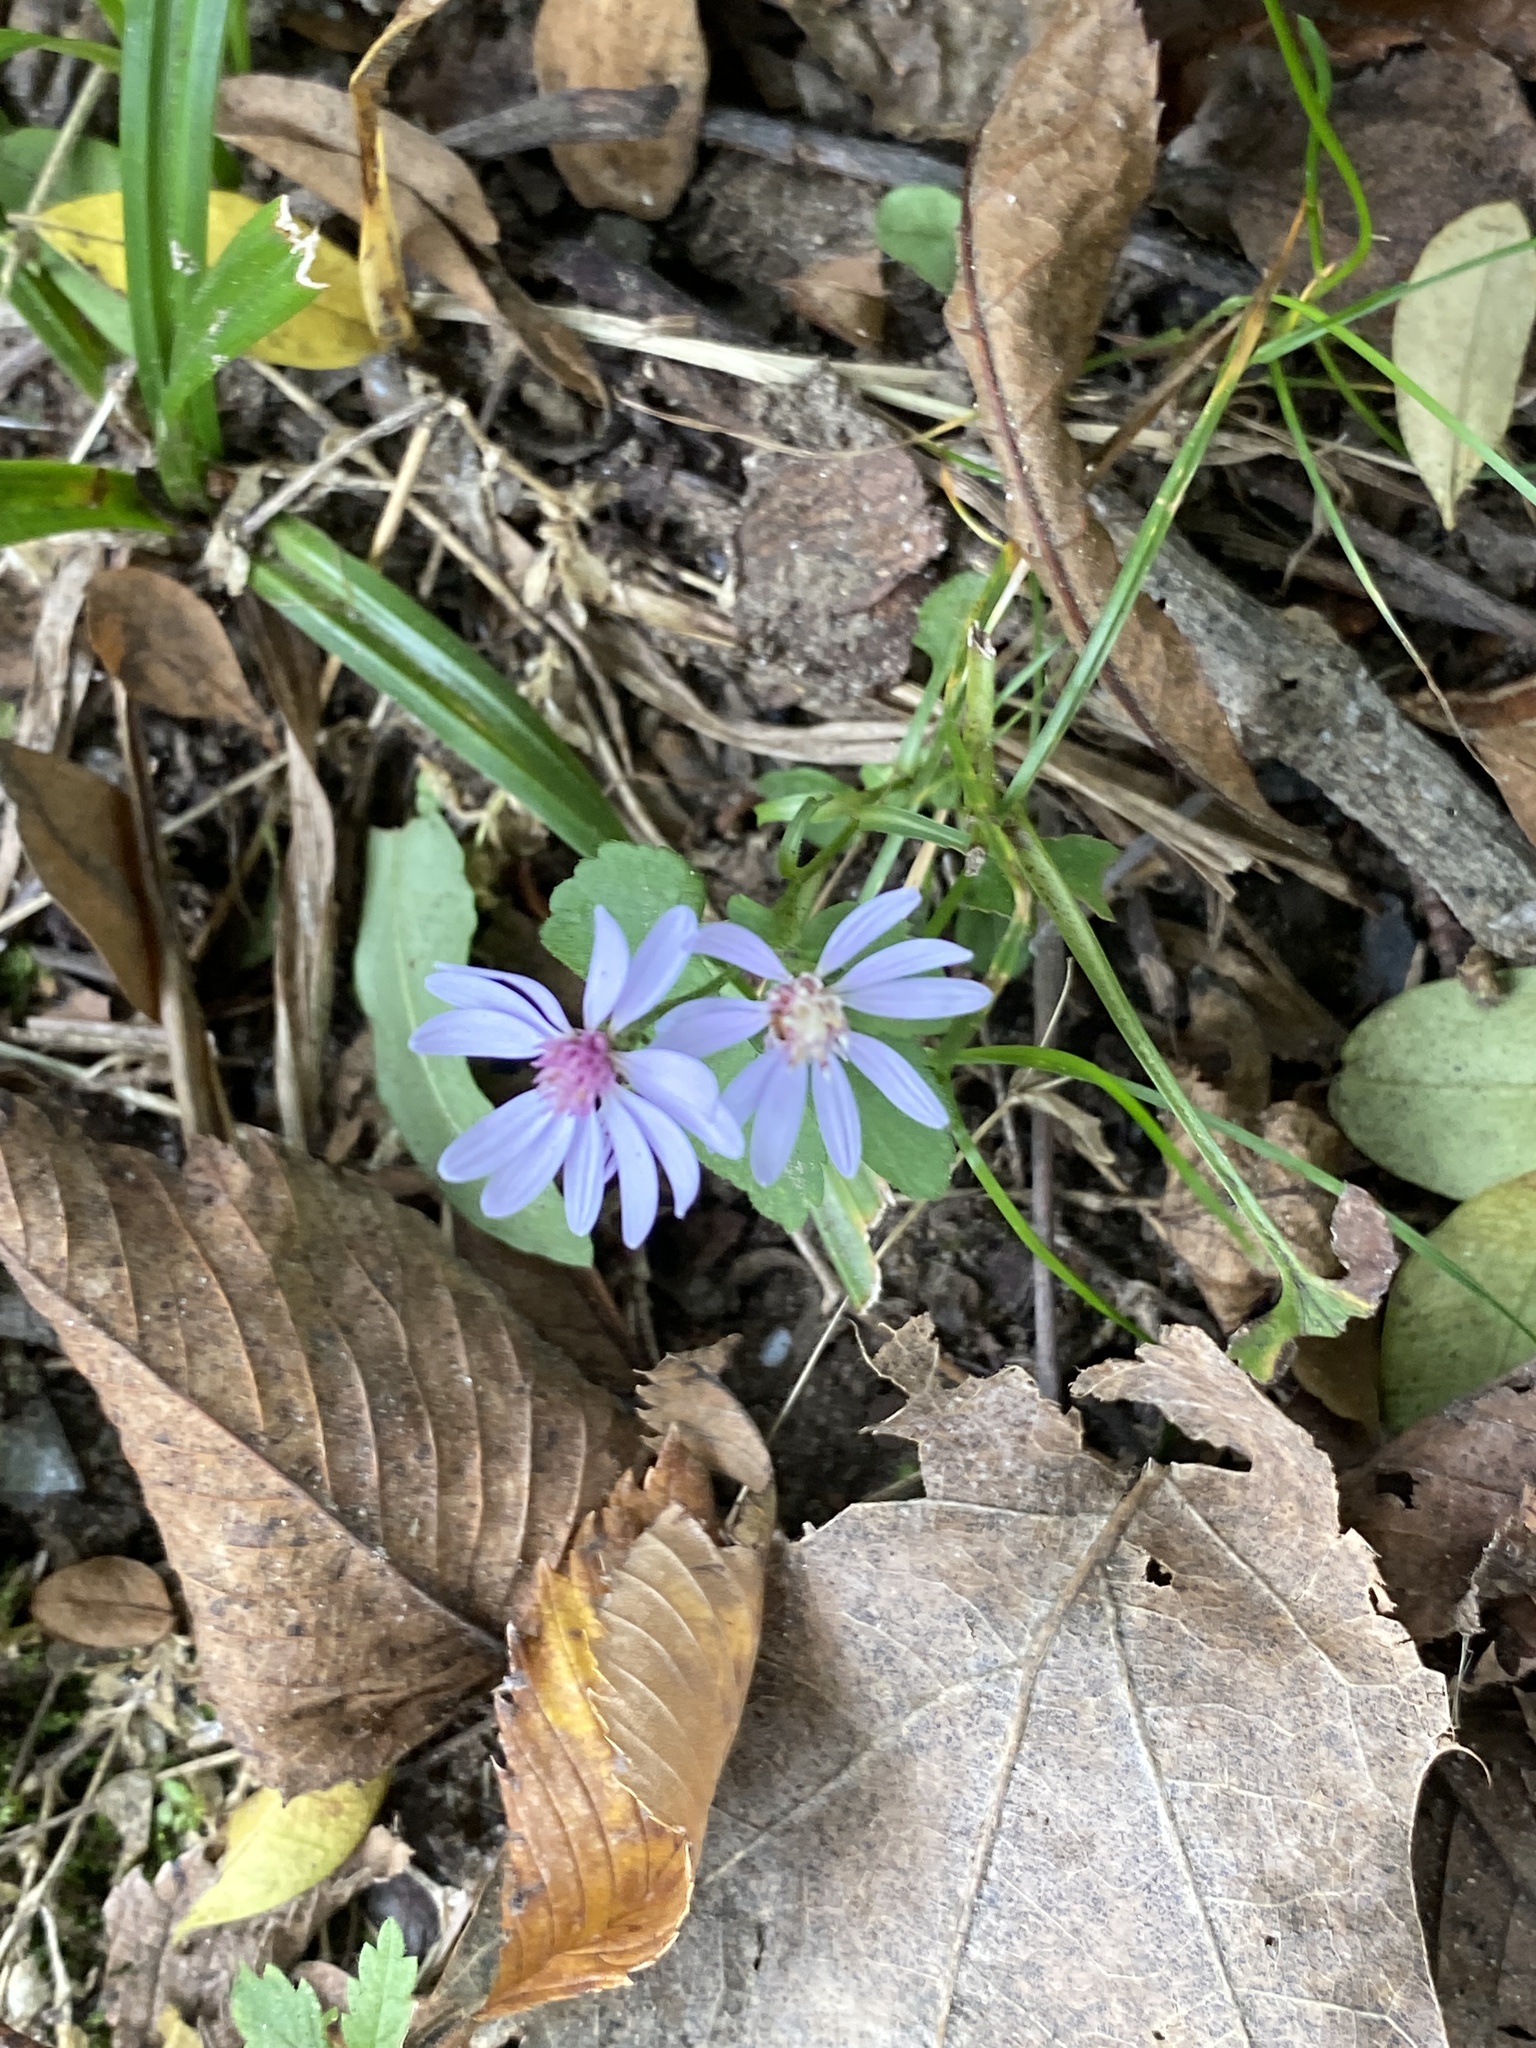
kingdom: Plantae
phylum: Tracheophyta
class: Magnoliopsida
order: Asterales
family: Asteraceae
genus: Symphyotrichum
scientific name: Symphyotrichum cordifolium
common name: Beeweed
